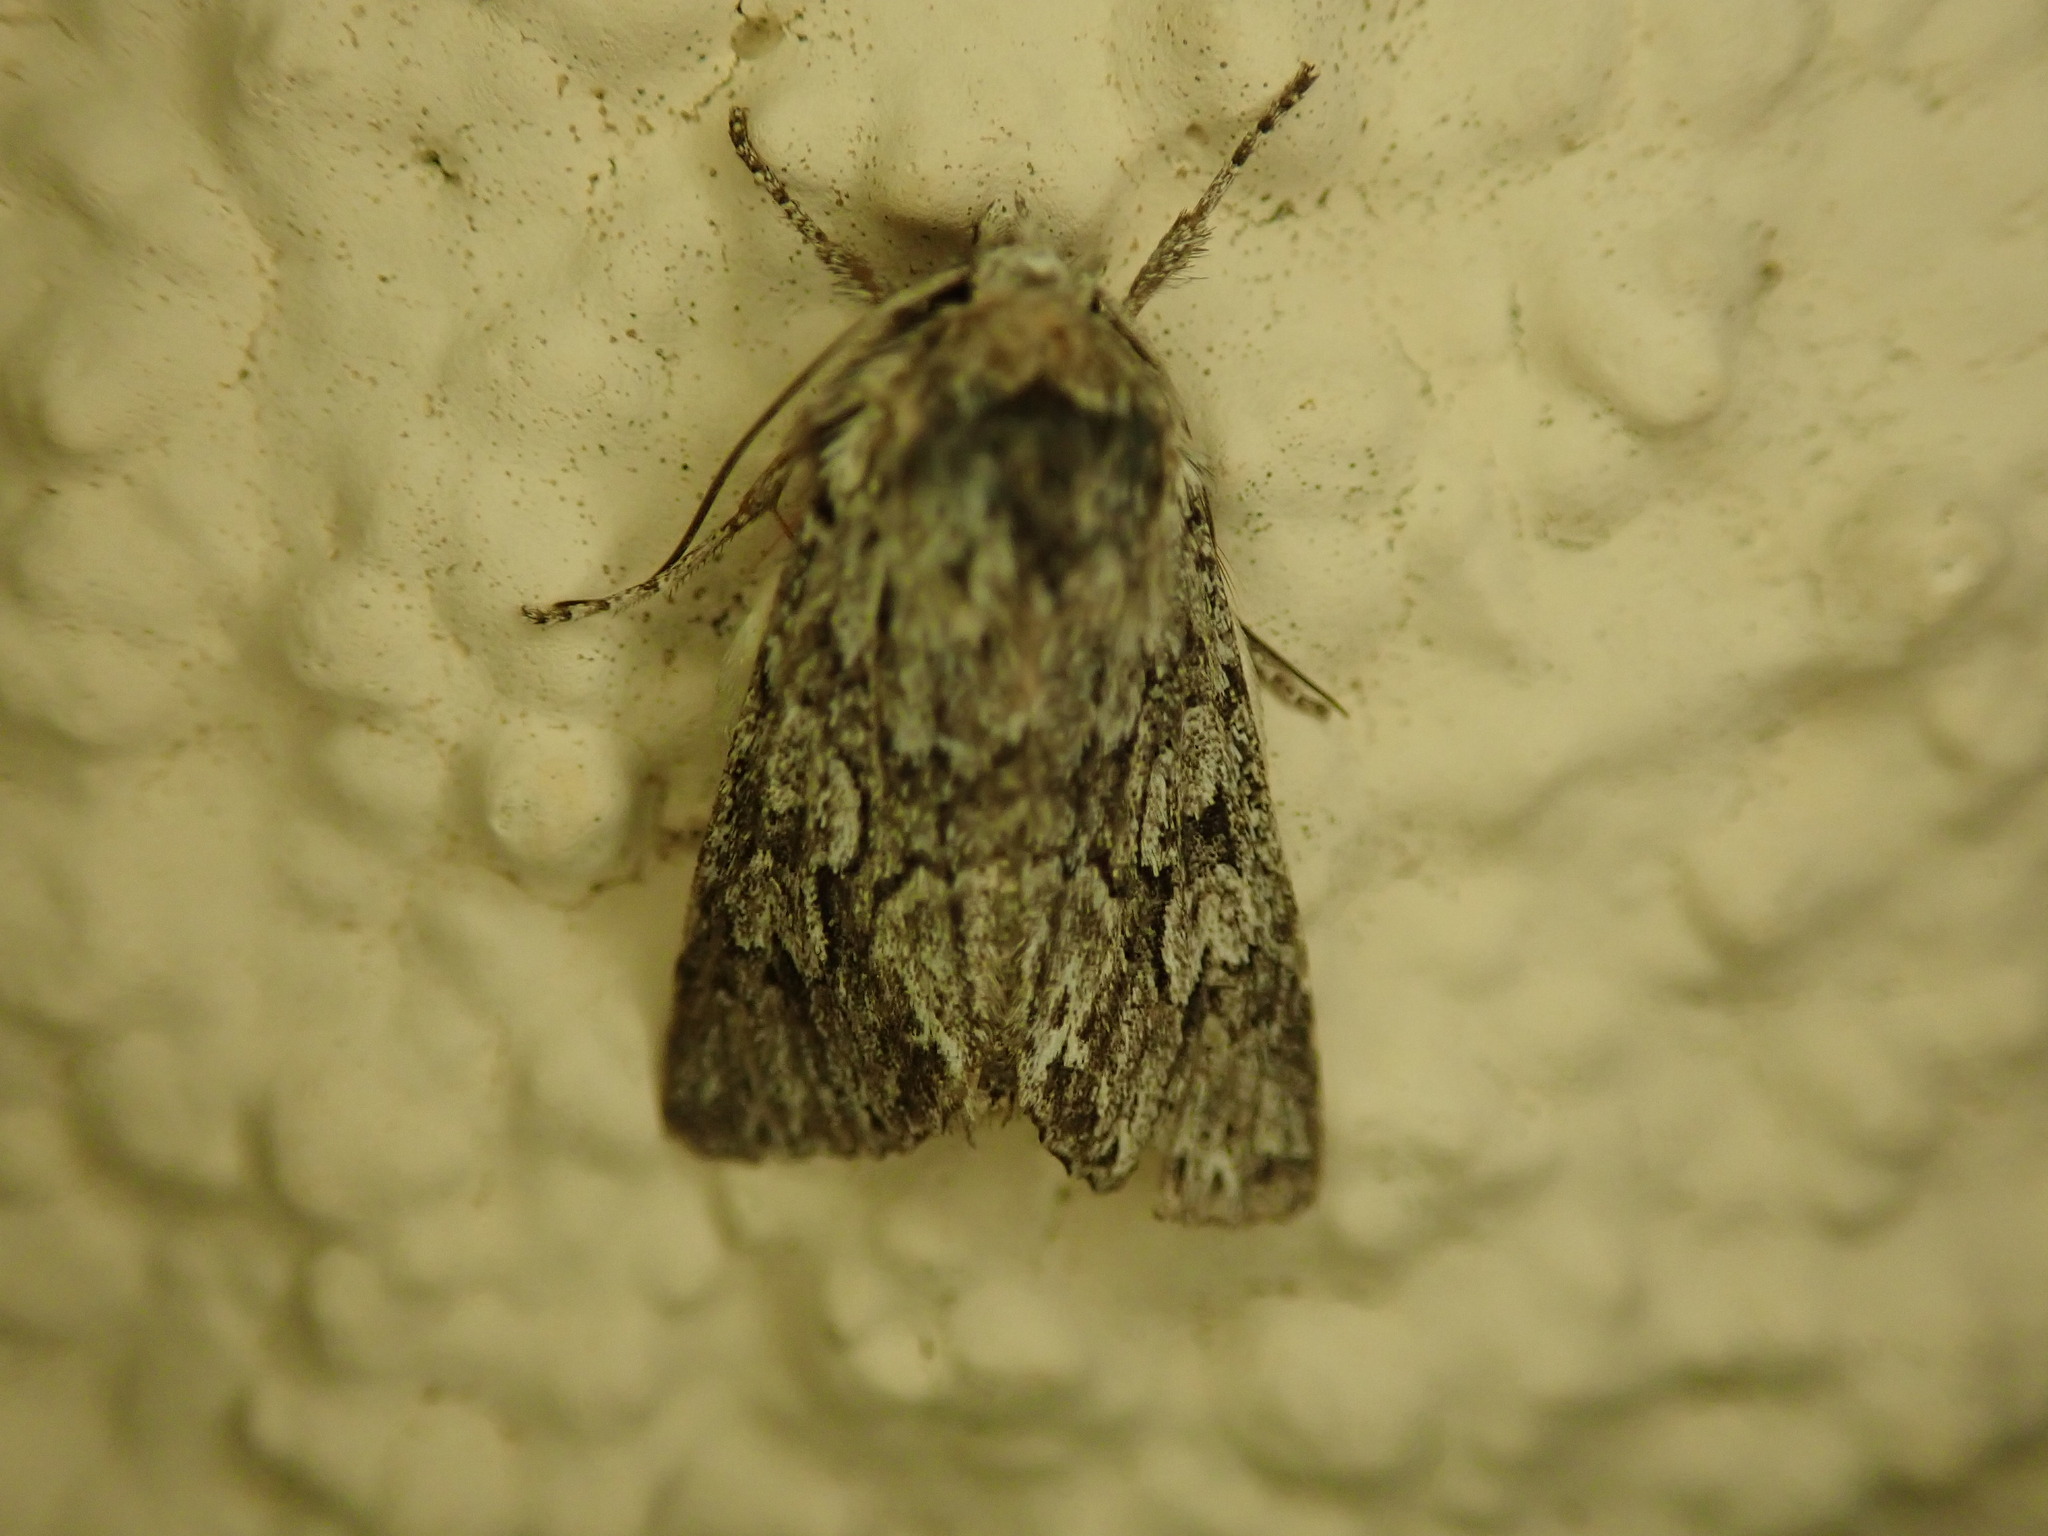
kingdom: Animalia
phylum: Arthropoda
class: Insecta
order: Lepidoptera
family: Noctuidae
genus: Xylocampa
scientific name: Xylocampa areola
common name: Early grey
